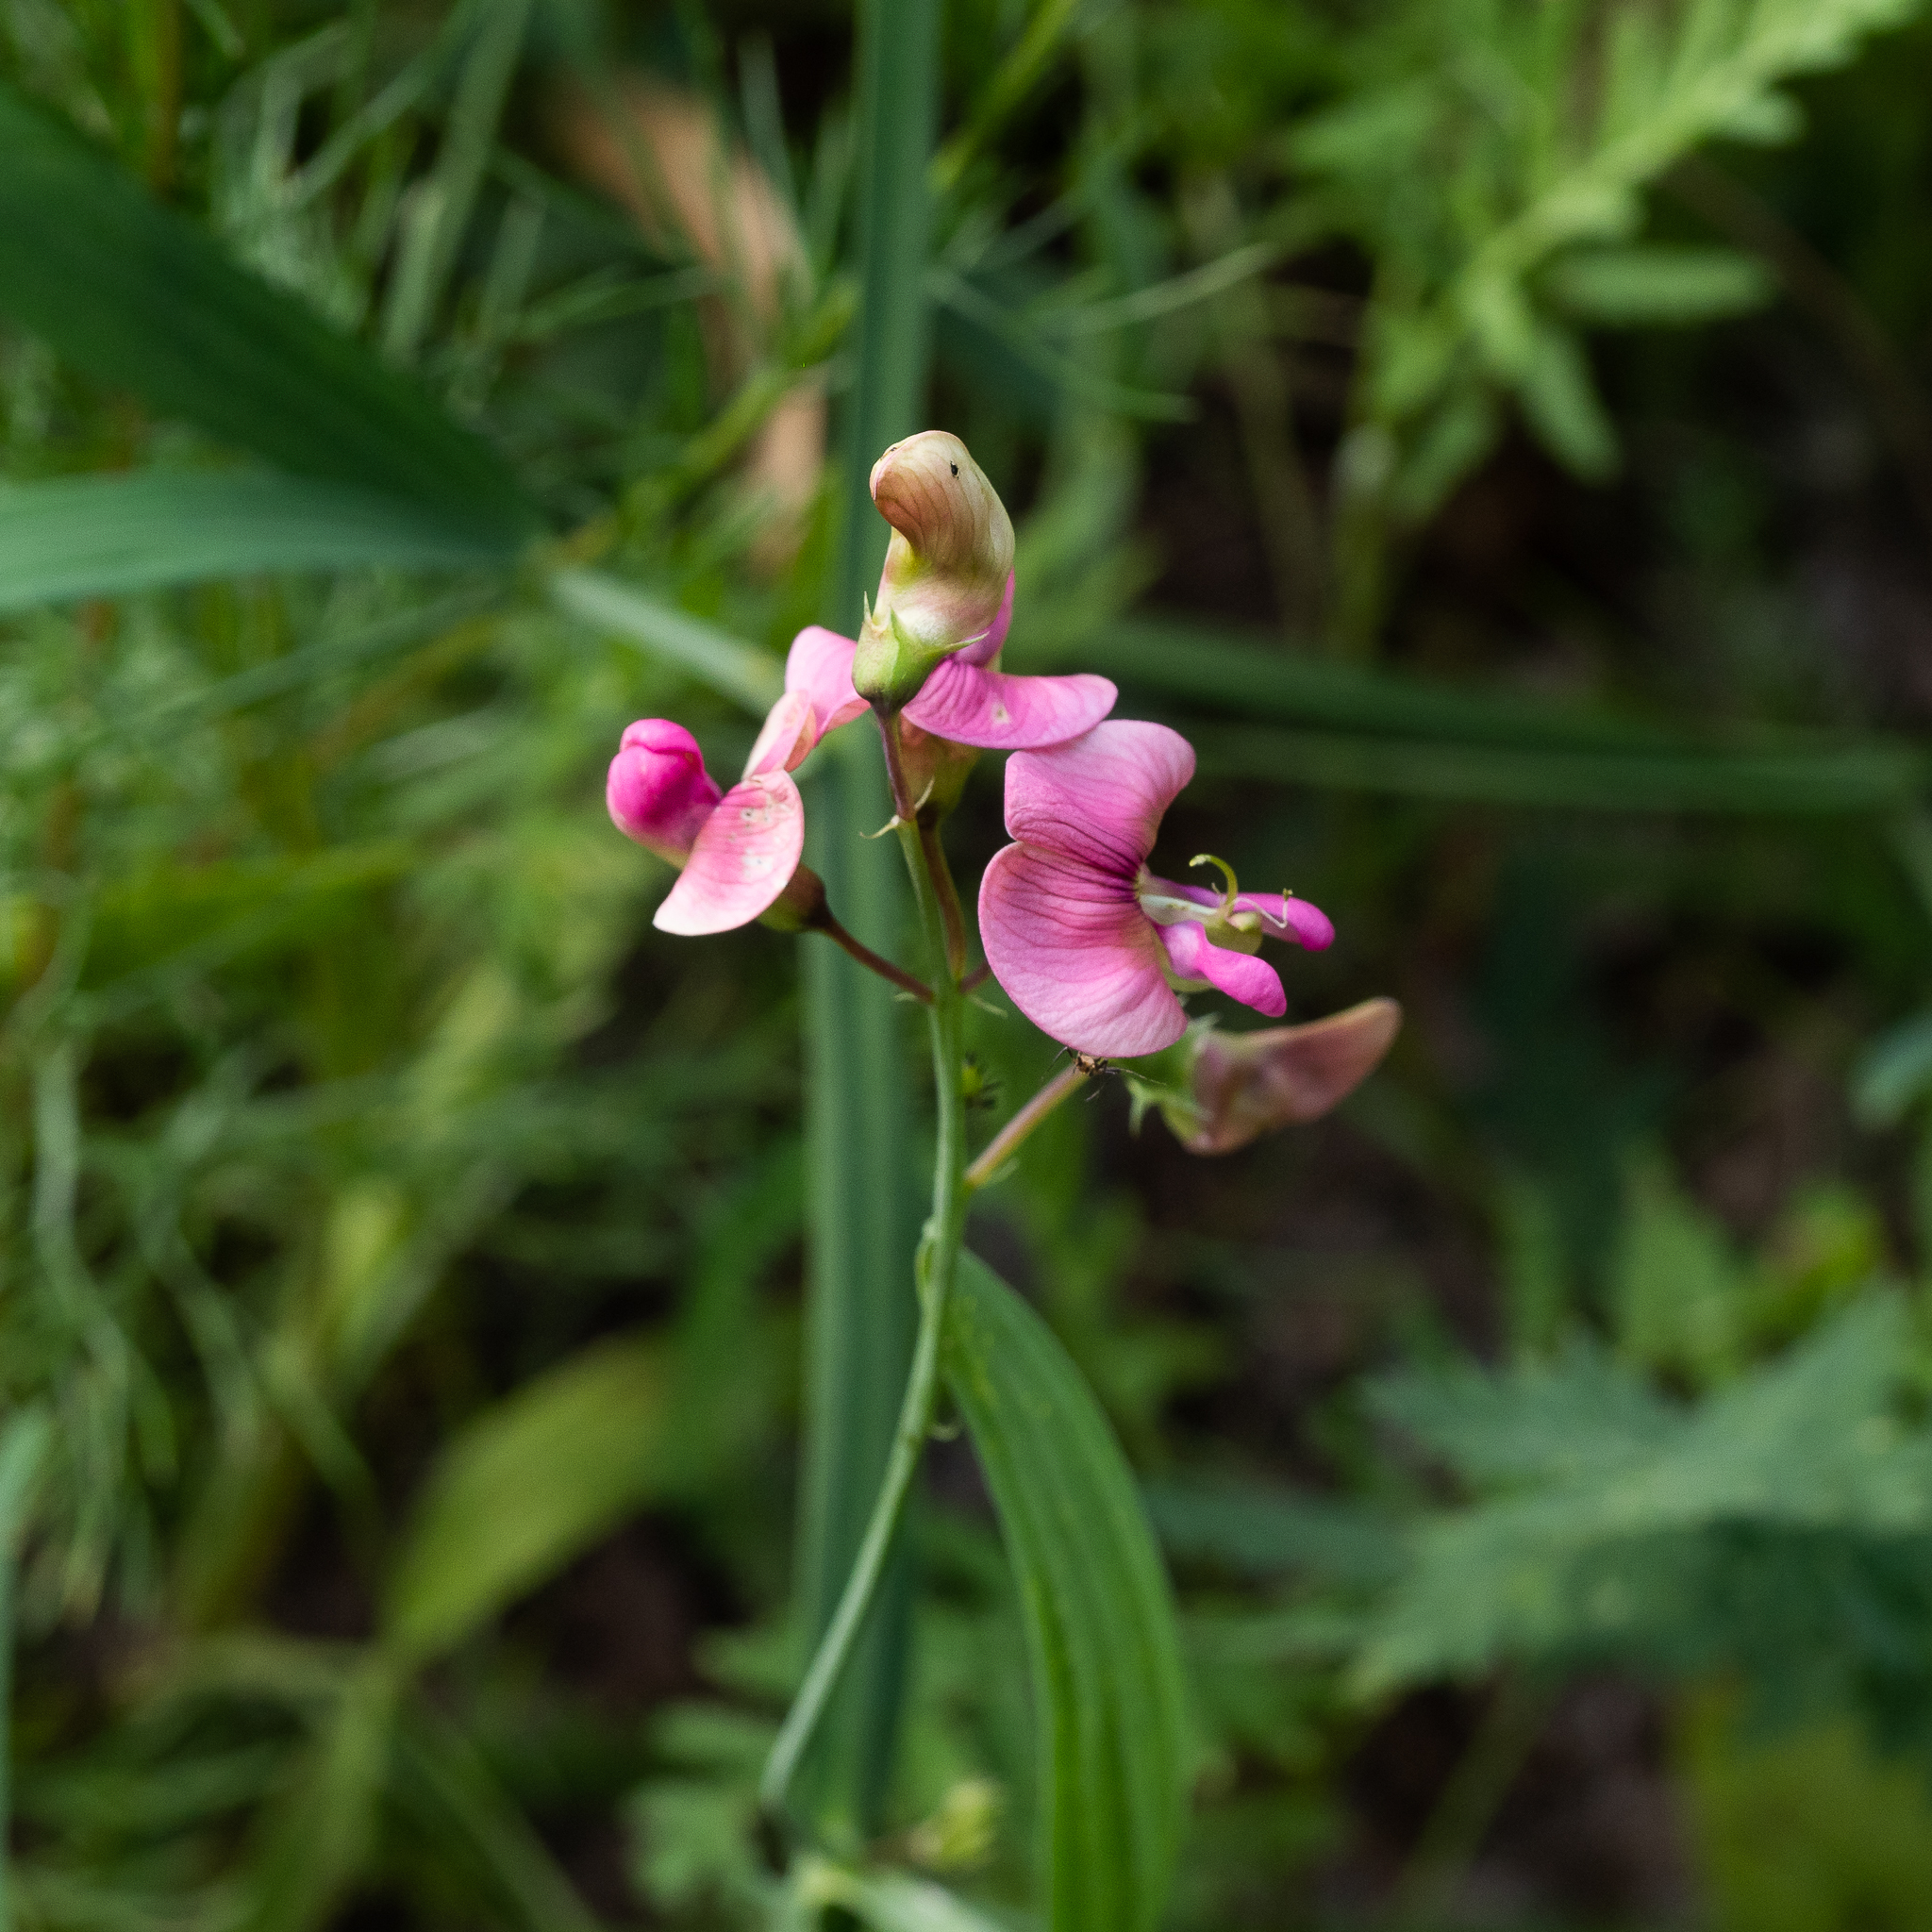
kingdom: Plantae
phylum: Tracheophyta
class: Magnoliopsida
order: Fabales
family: Fabaceae
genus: Lathyrus
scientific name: Lathyrus sylvestris
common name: Flat pea
